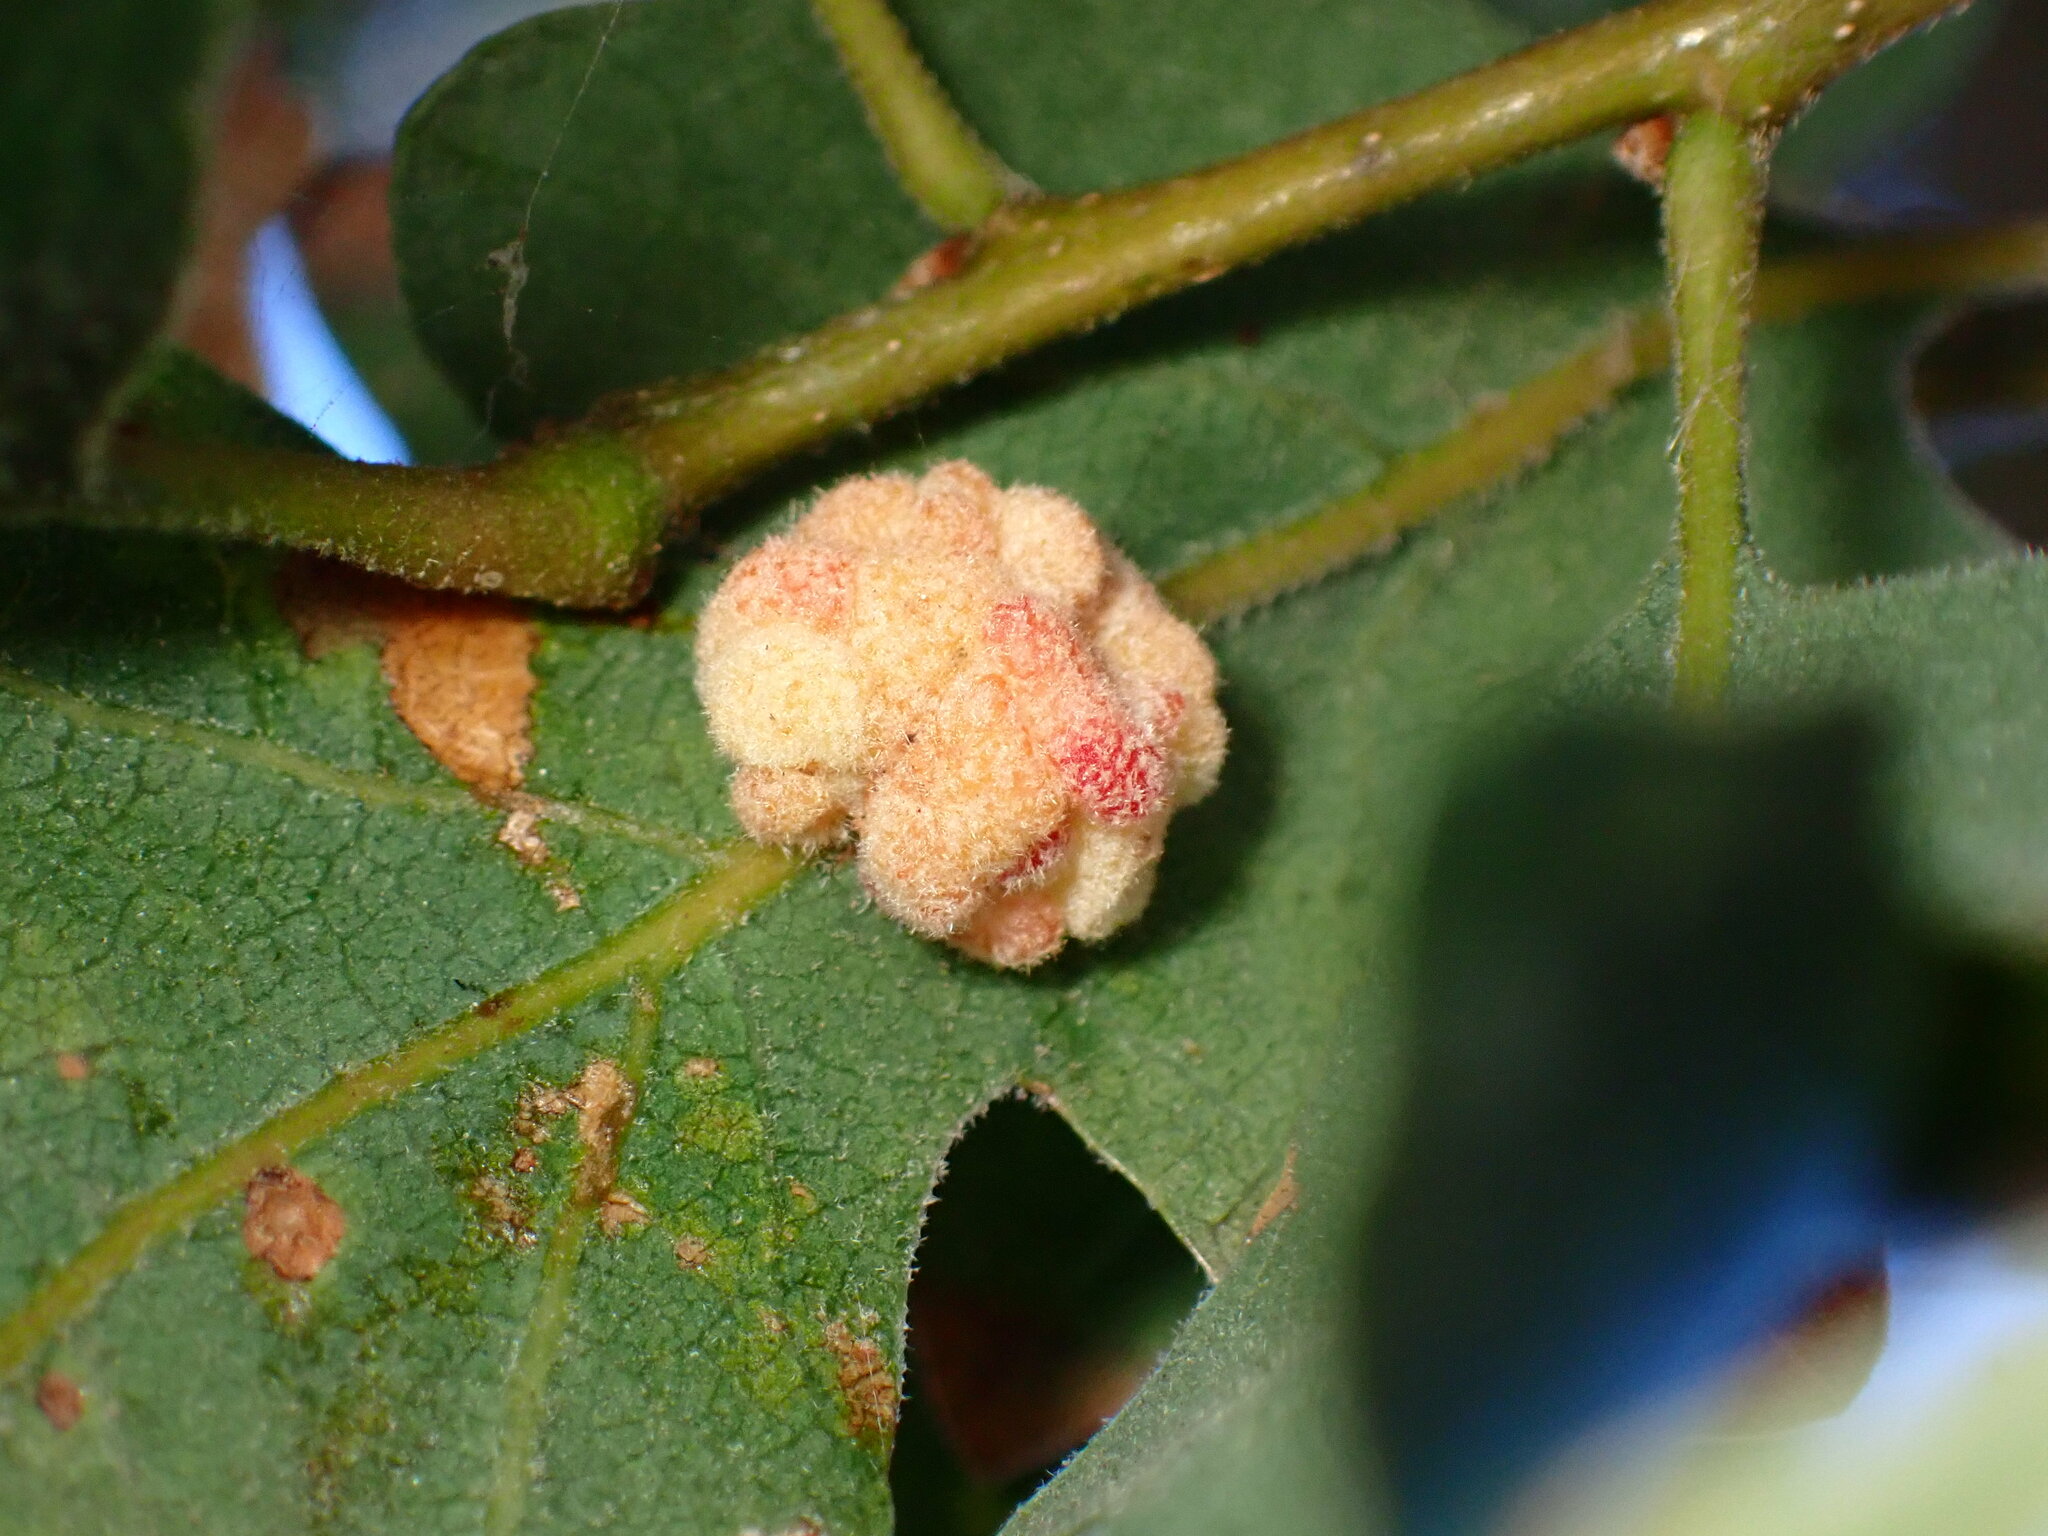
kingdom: Animalia
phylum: Arthropoda
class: Insecta
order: Hymenoptera
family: Cynipidae
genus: Andricus
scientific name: Andricus
